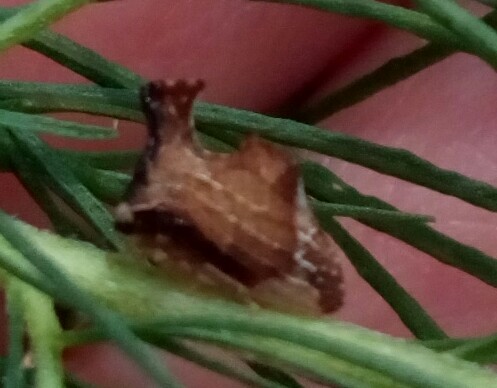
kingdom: Animalia
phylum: Arthropoda
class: Insecta
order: Hemiptera
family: Membracidae
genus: Entylia
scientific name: Entylia carinata
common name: Keeled treehopper
